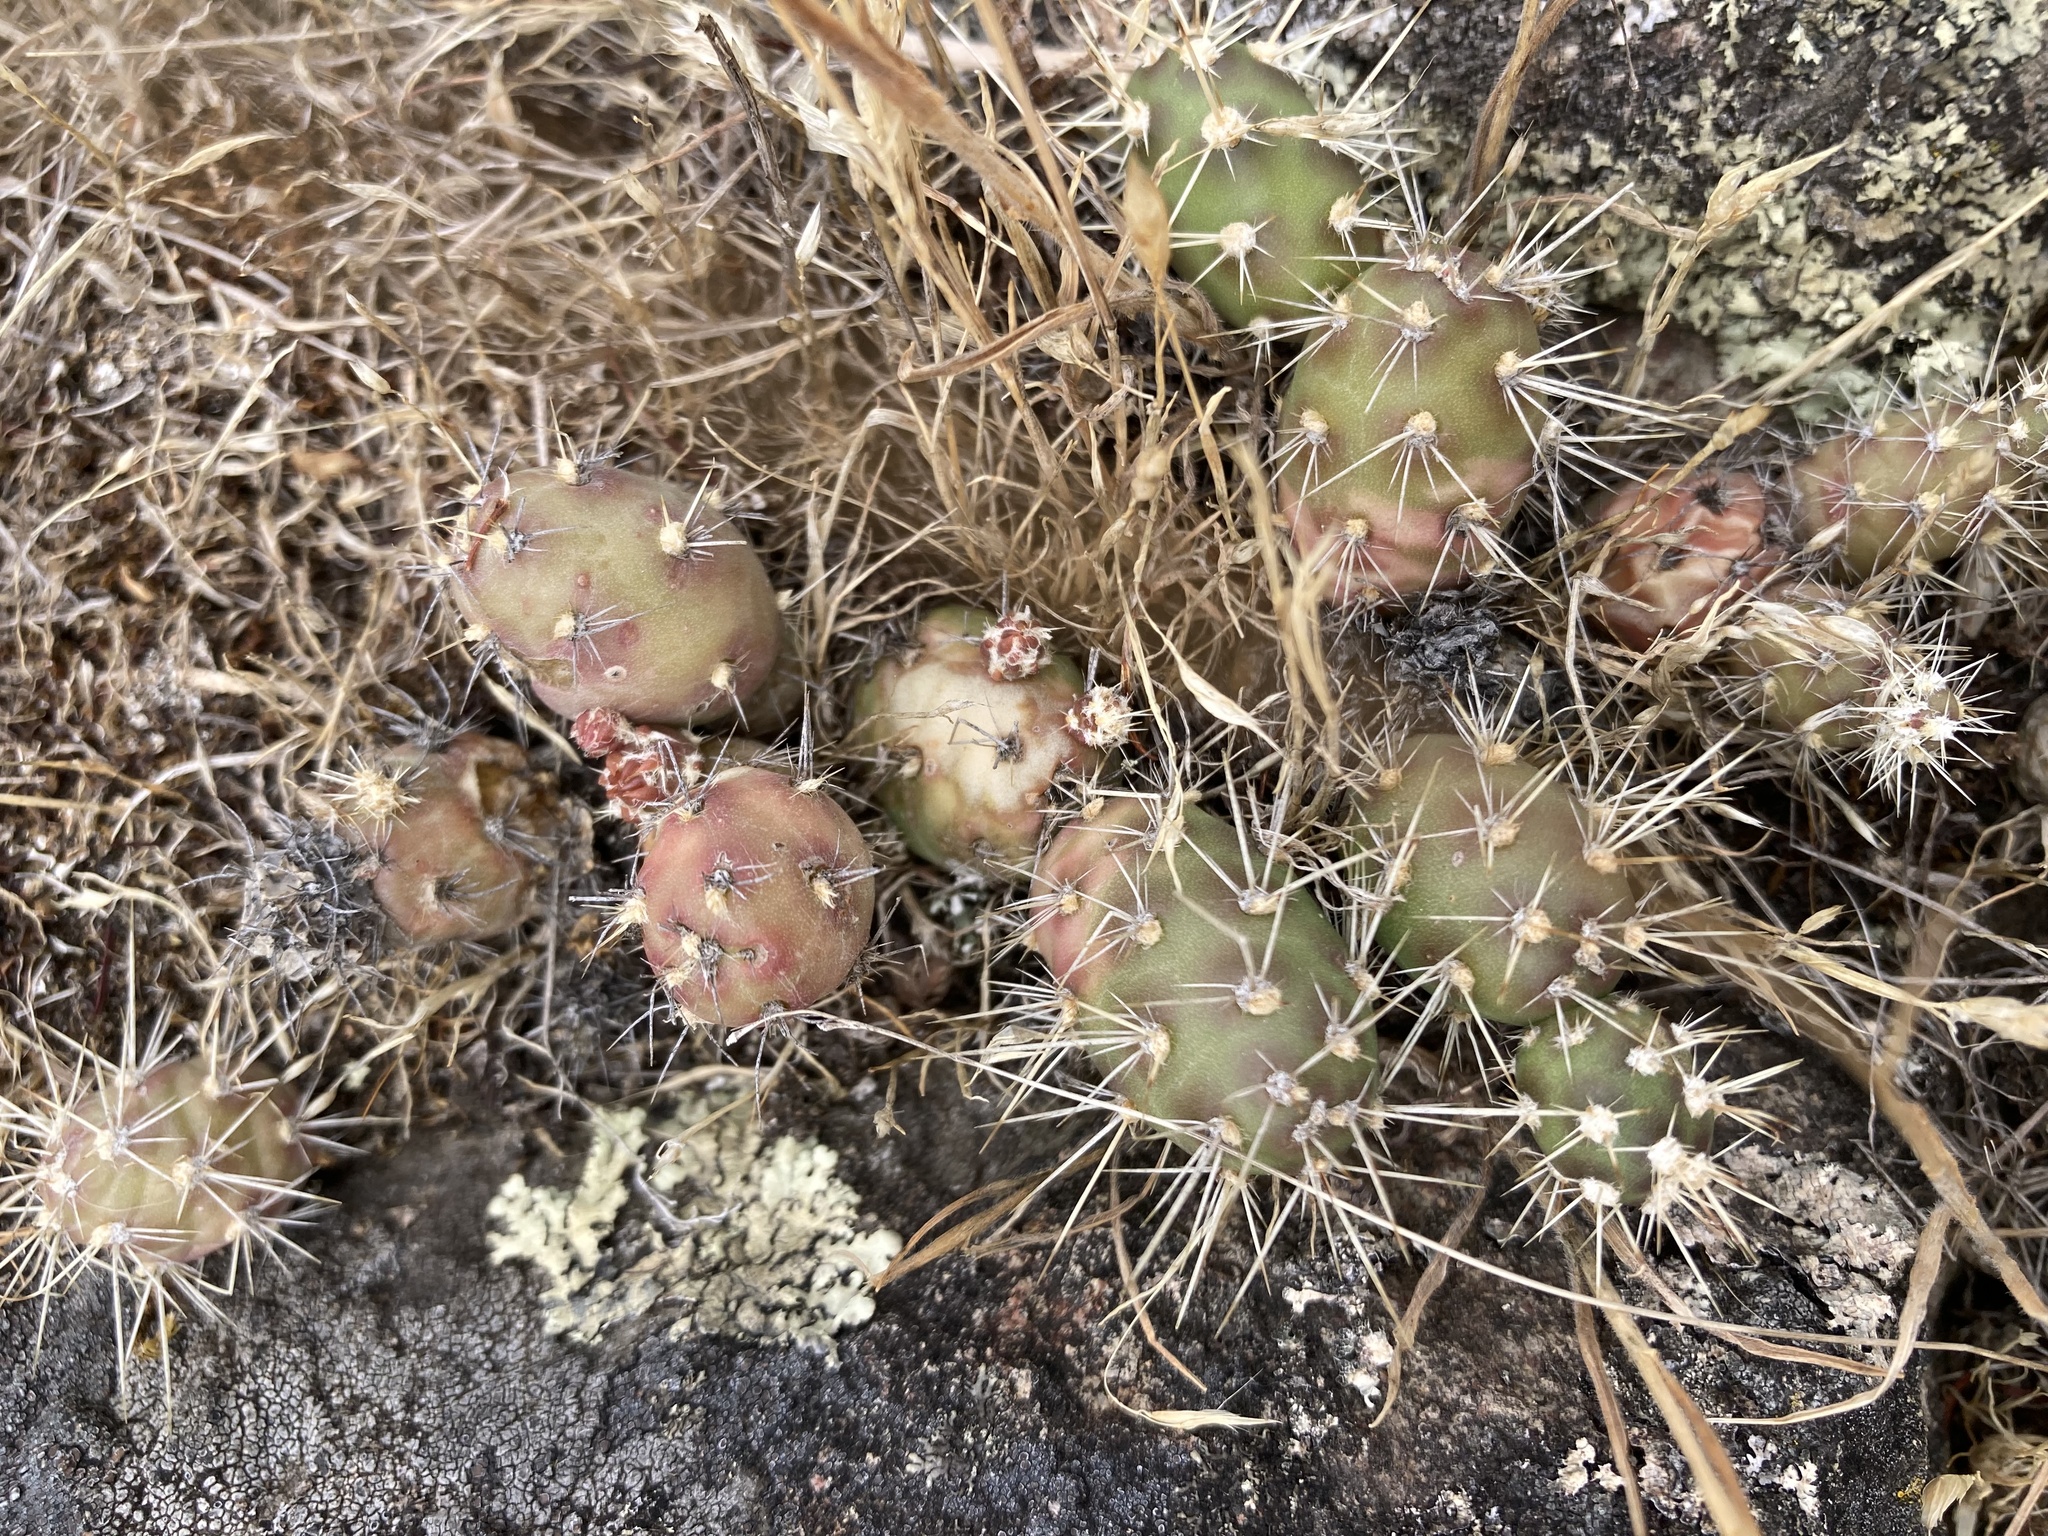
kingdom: Plantae
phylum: Tracheophyta
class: Magnoliopsida
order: Caryophyllales
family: Cactaceae
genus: Opuntia
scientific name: Opuntia fragilis
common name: Brittle cactus
